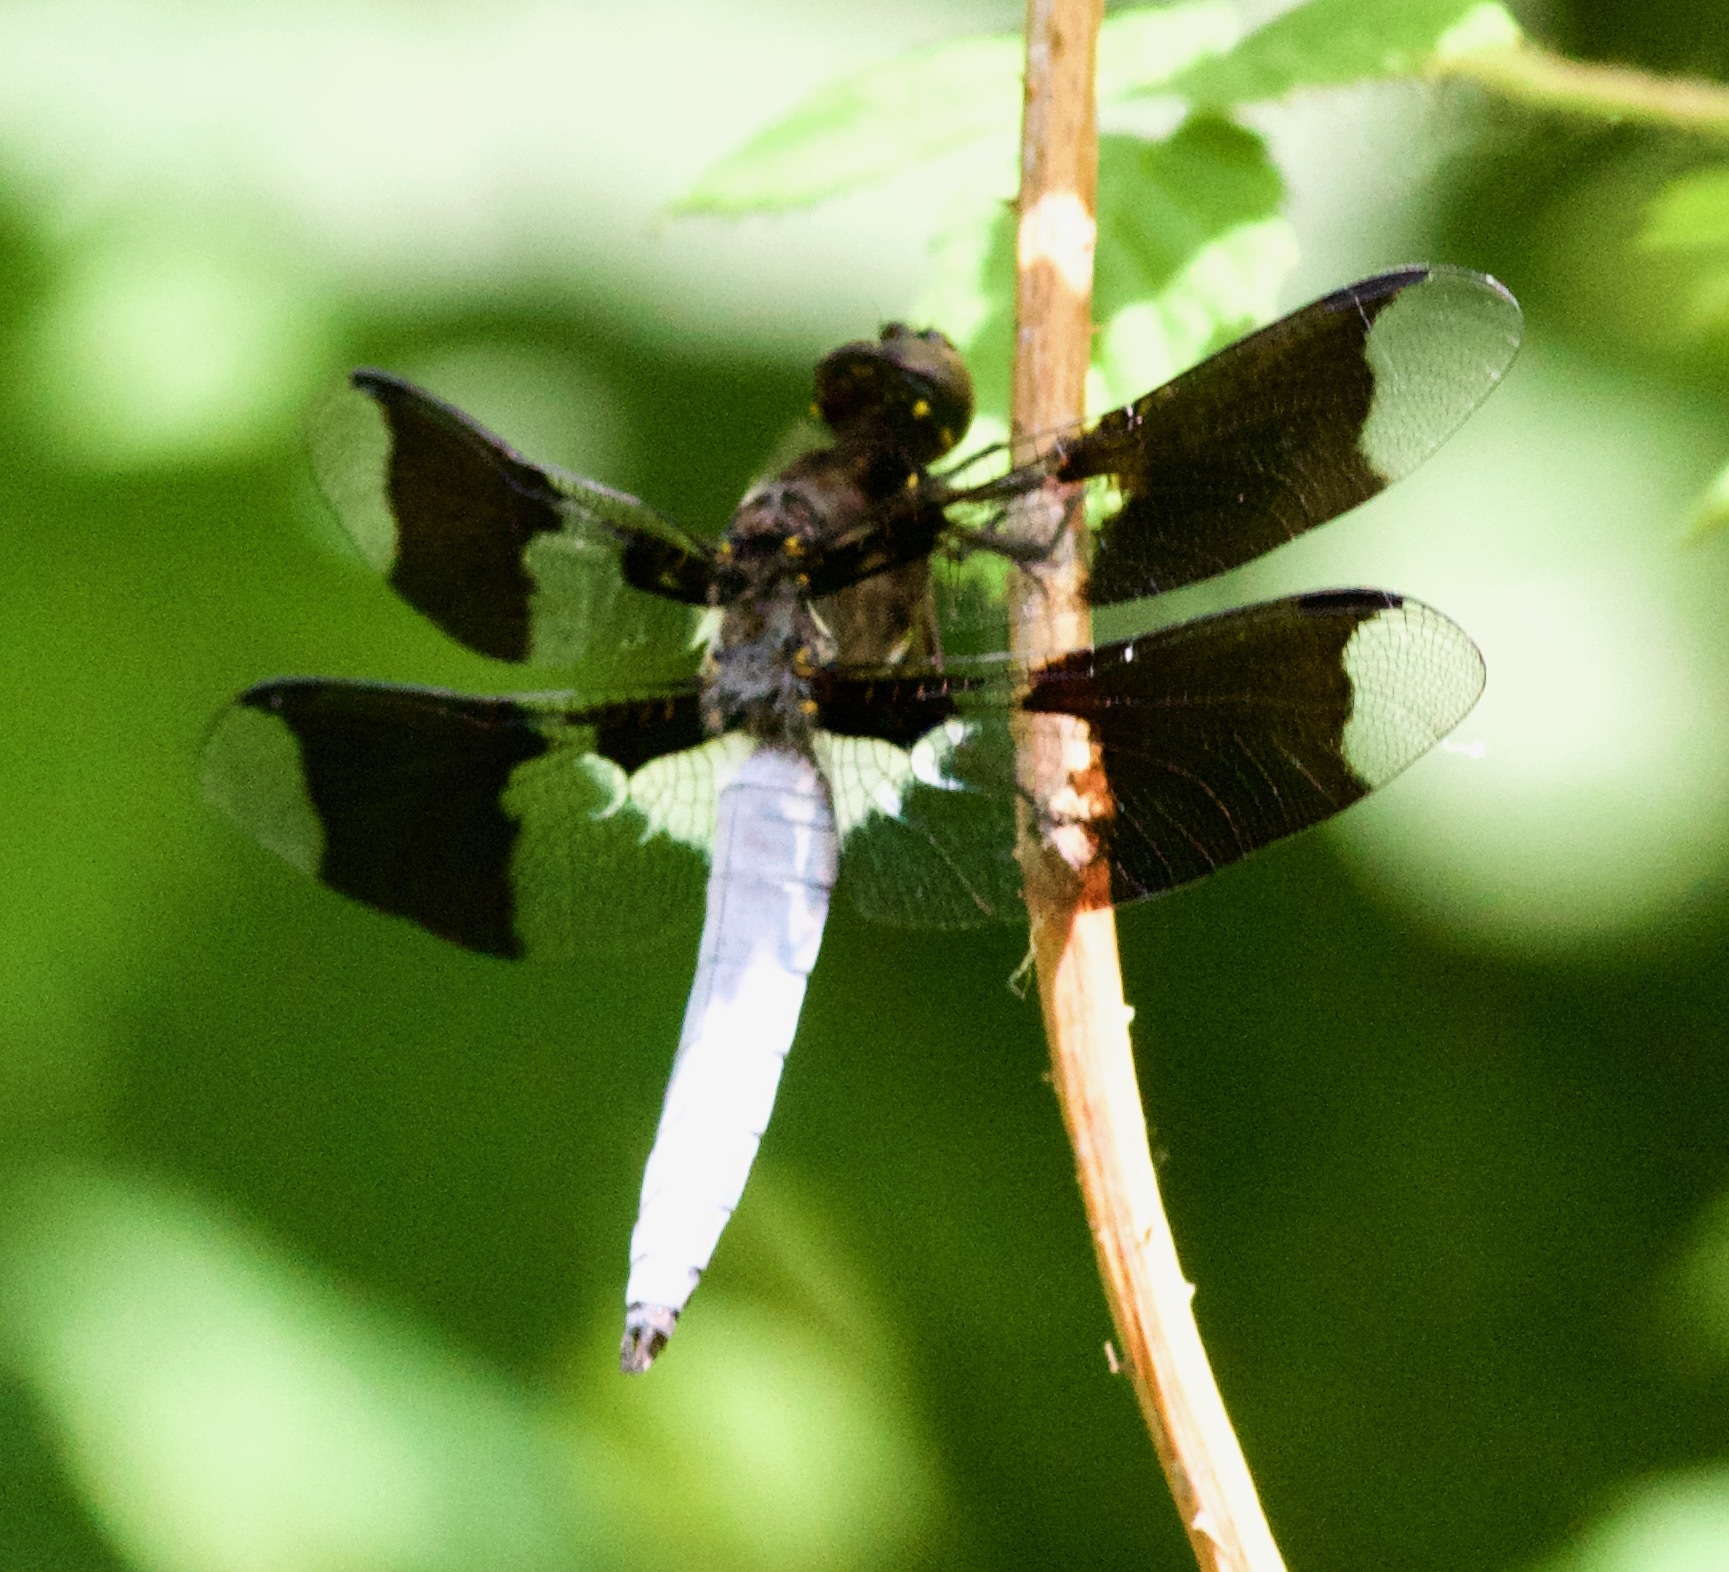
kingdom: Animalia
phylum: Arthropoda
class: Insecta
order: Odonata
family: Libellulidae
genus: Plathemis
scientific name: Plathemis lydia
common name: Common whitetail
